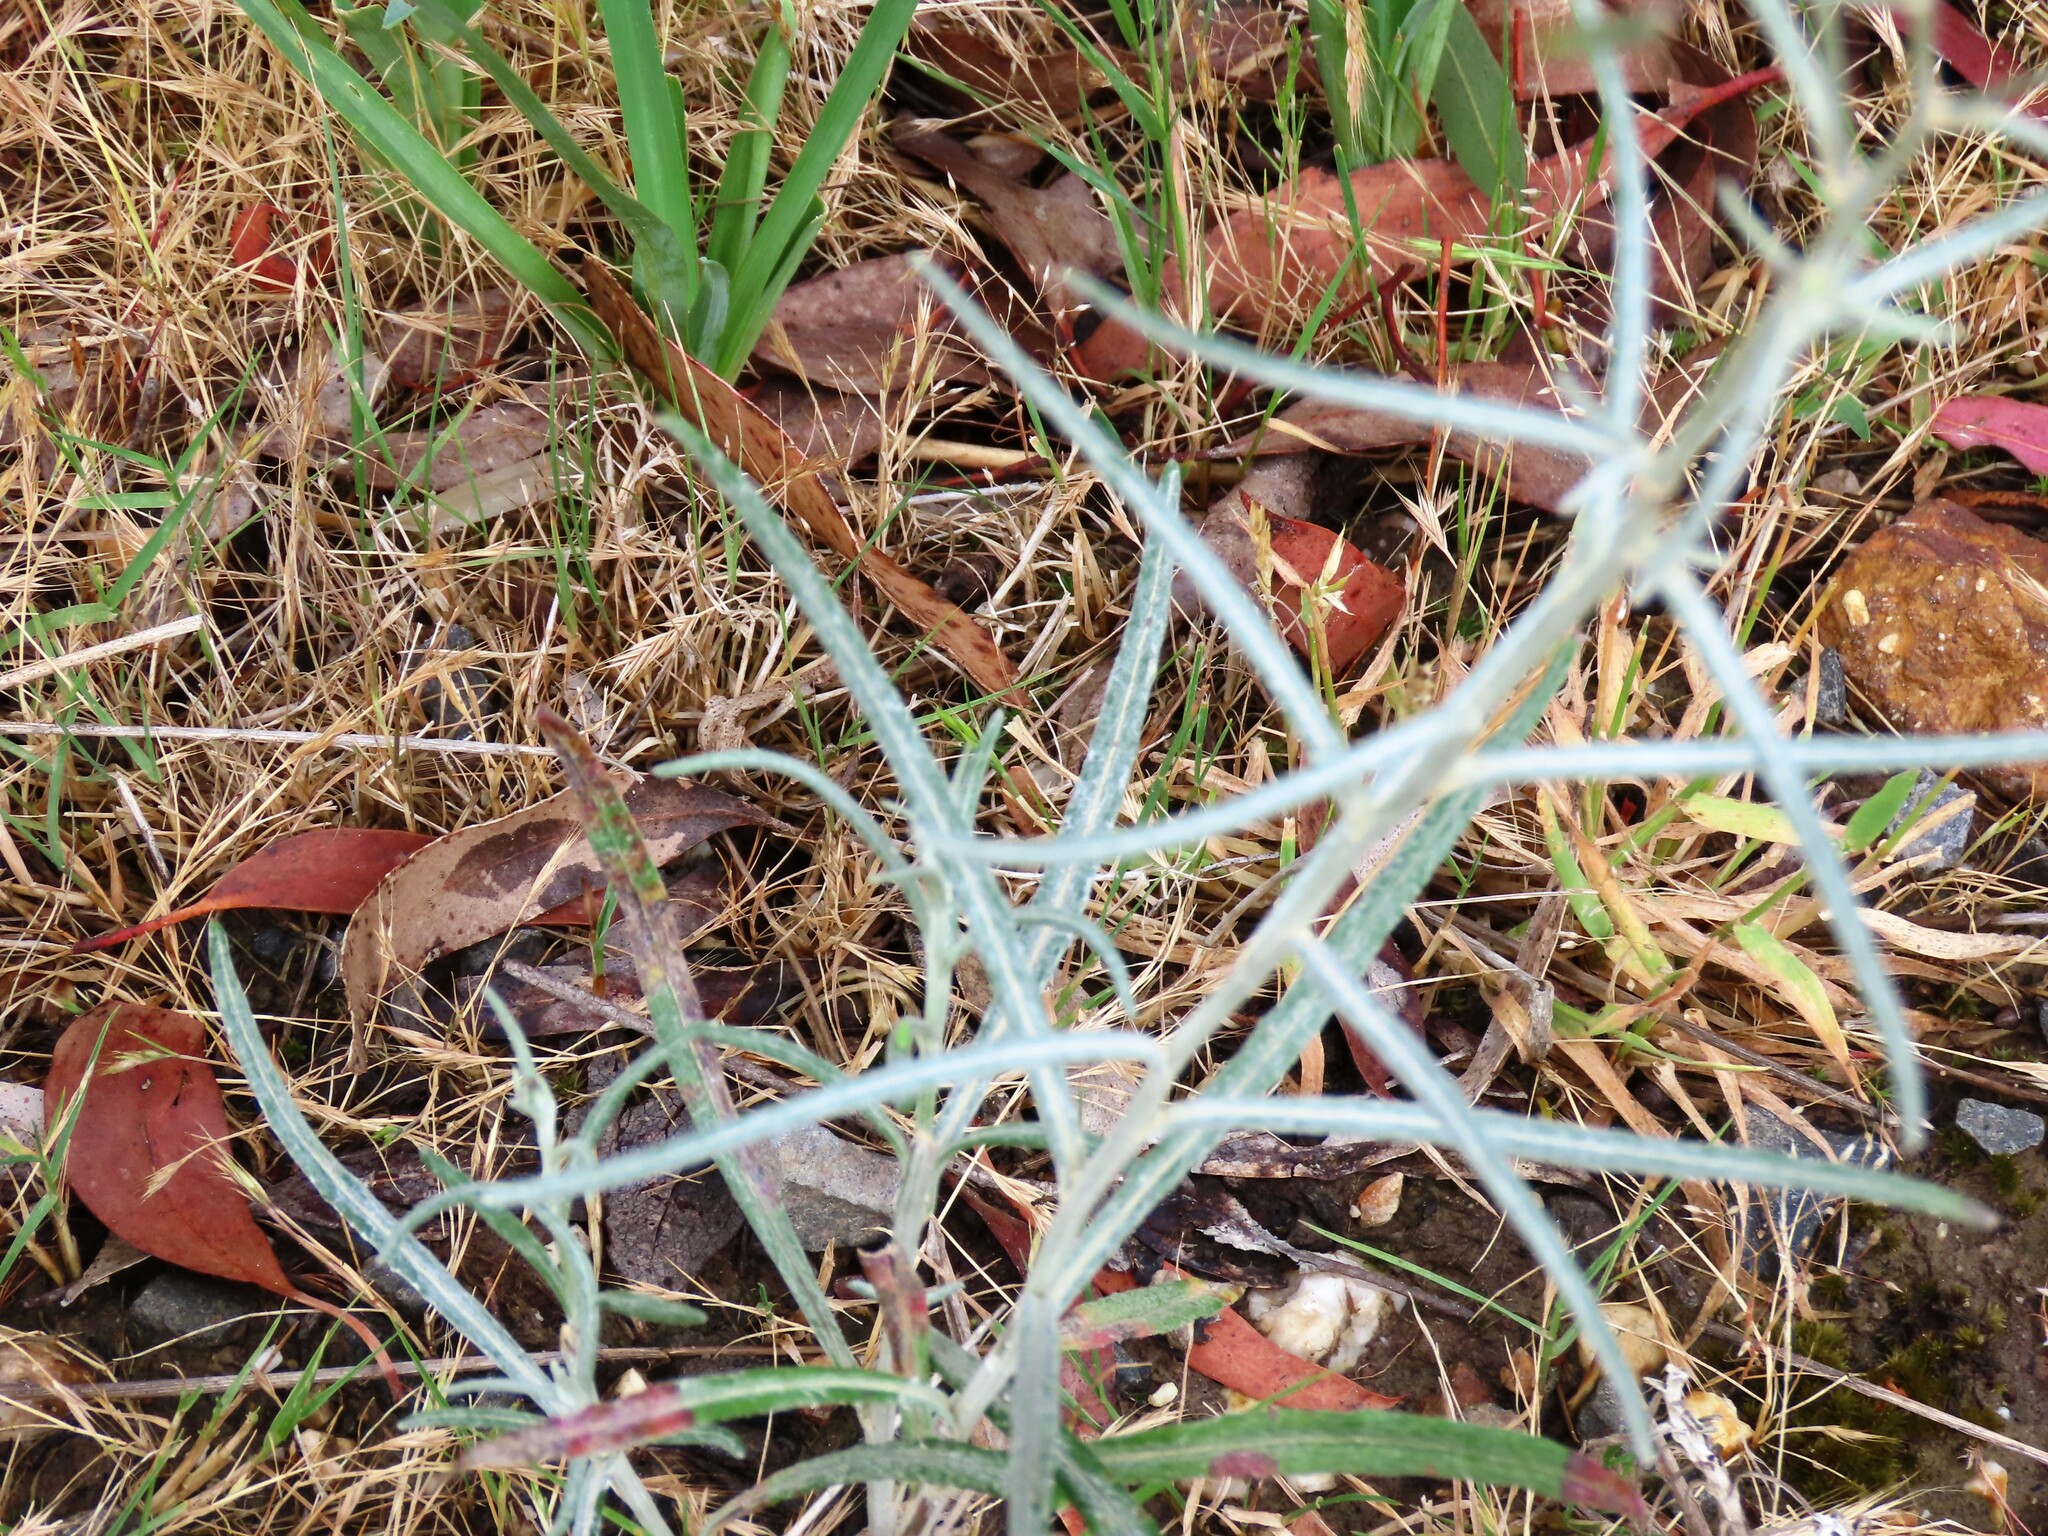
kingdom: Plantae
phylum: Tracheophyta
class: Magnoliopsida
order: Asterales
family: Asteraceae
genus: Senecio
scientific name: Senecio quadridentatus
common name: Cotton fireweed
